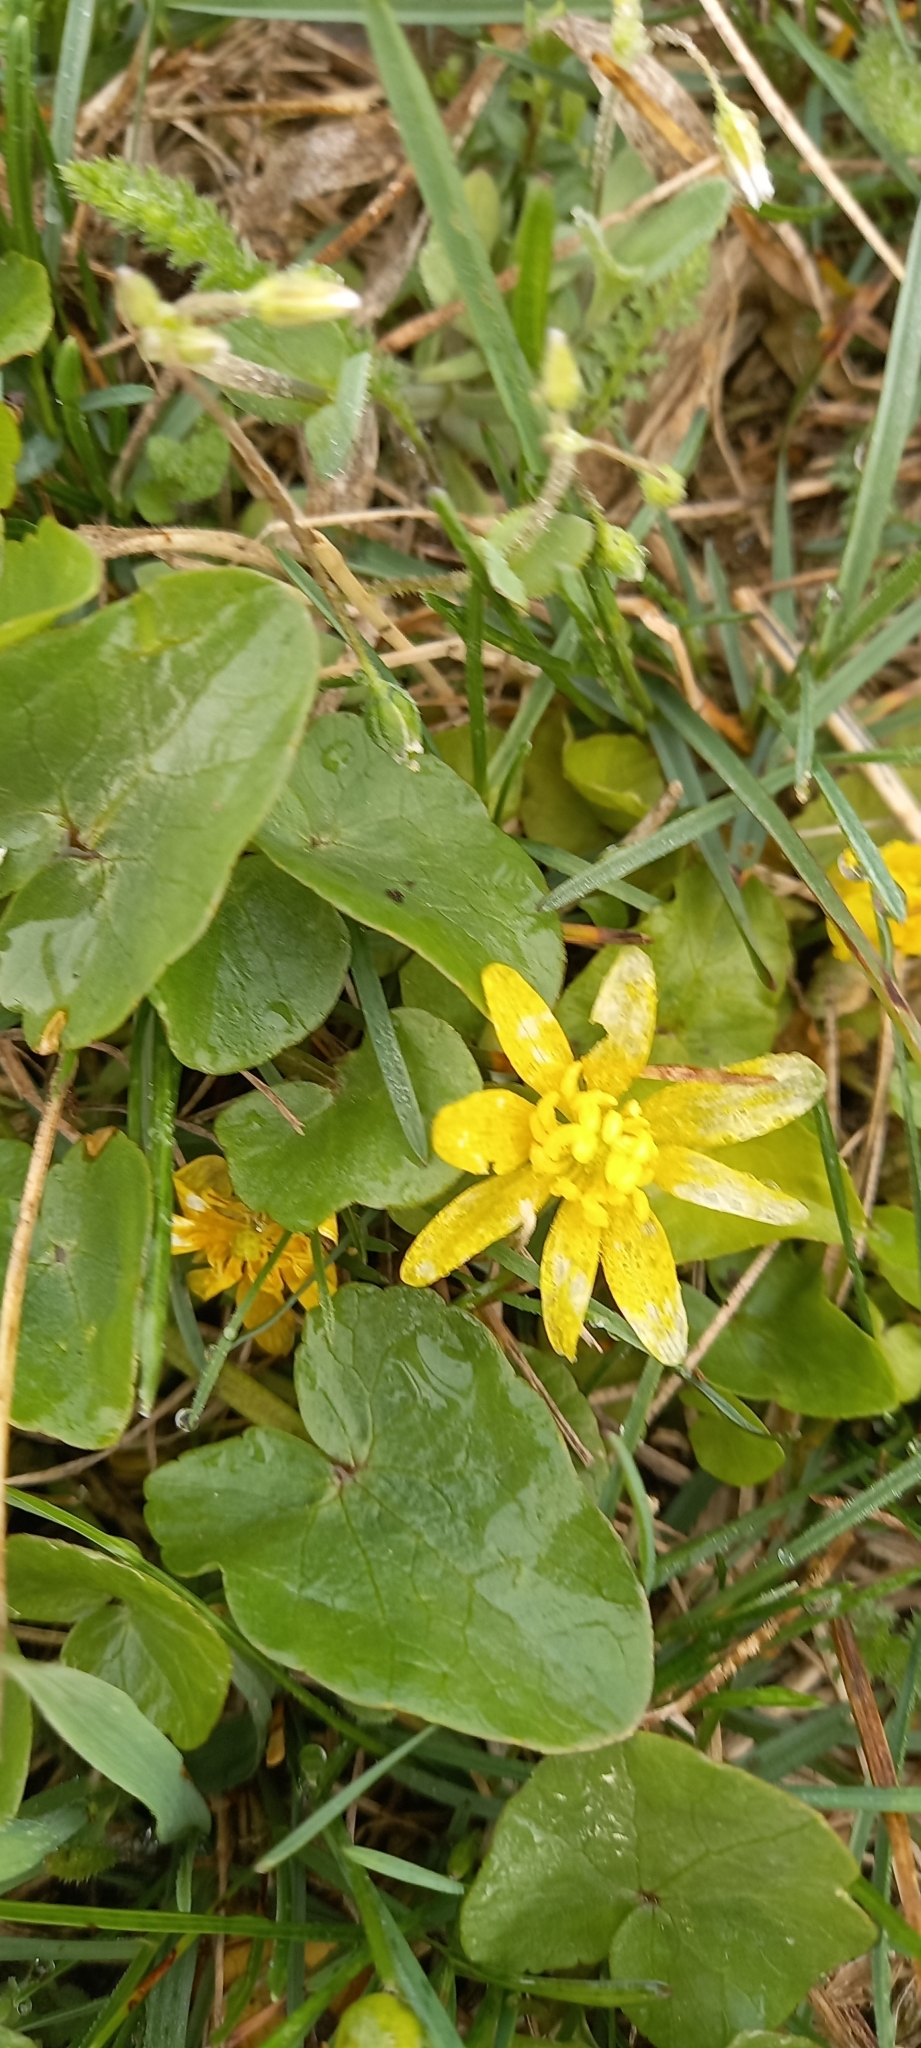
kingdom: Plantae
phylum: Tracheophyta
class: Magnoliopsida
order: Ranunculales
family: Ranunculaceae
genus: Ficaria
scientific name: Ficaria verna
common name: Lesser celandine
